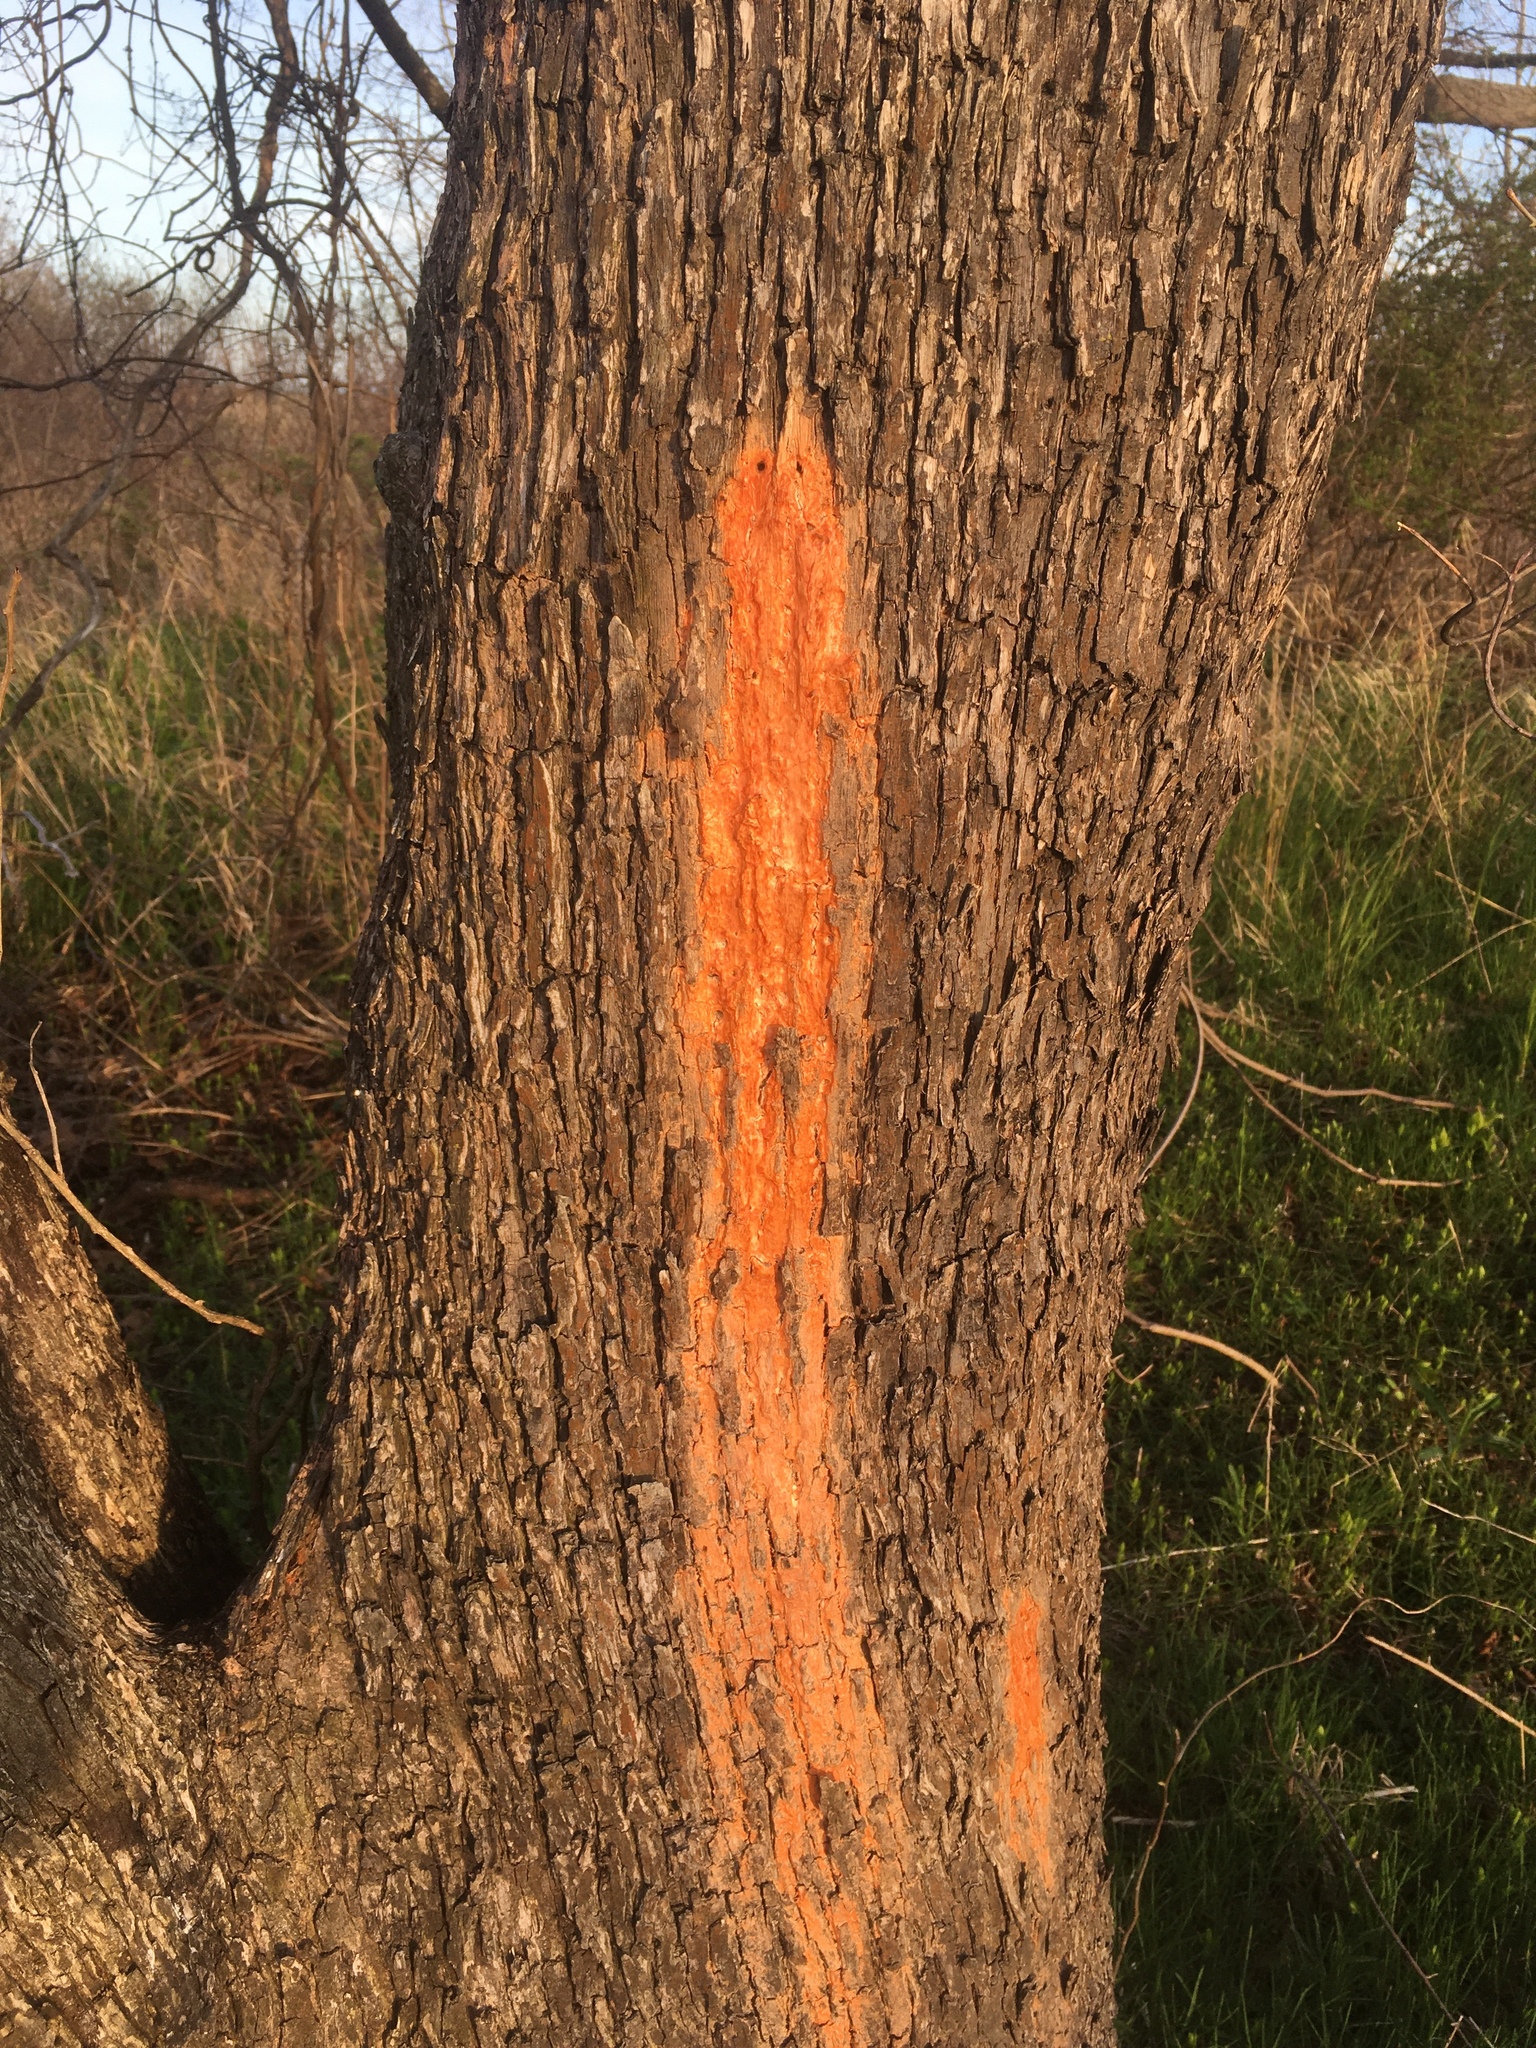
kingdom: Fungi
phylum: Basidiomycota
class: Tremellomycetes
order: Cystofilobasidiales
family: Cystofilobasidiaceae
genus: Cystofilobasidium
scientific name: Cystofilobasidium macerans
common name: Sap yeast
